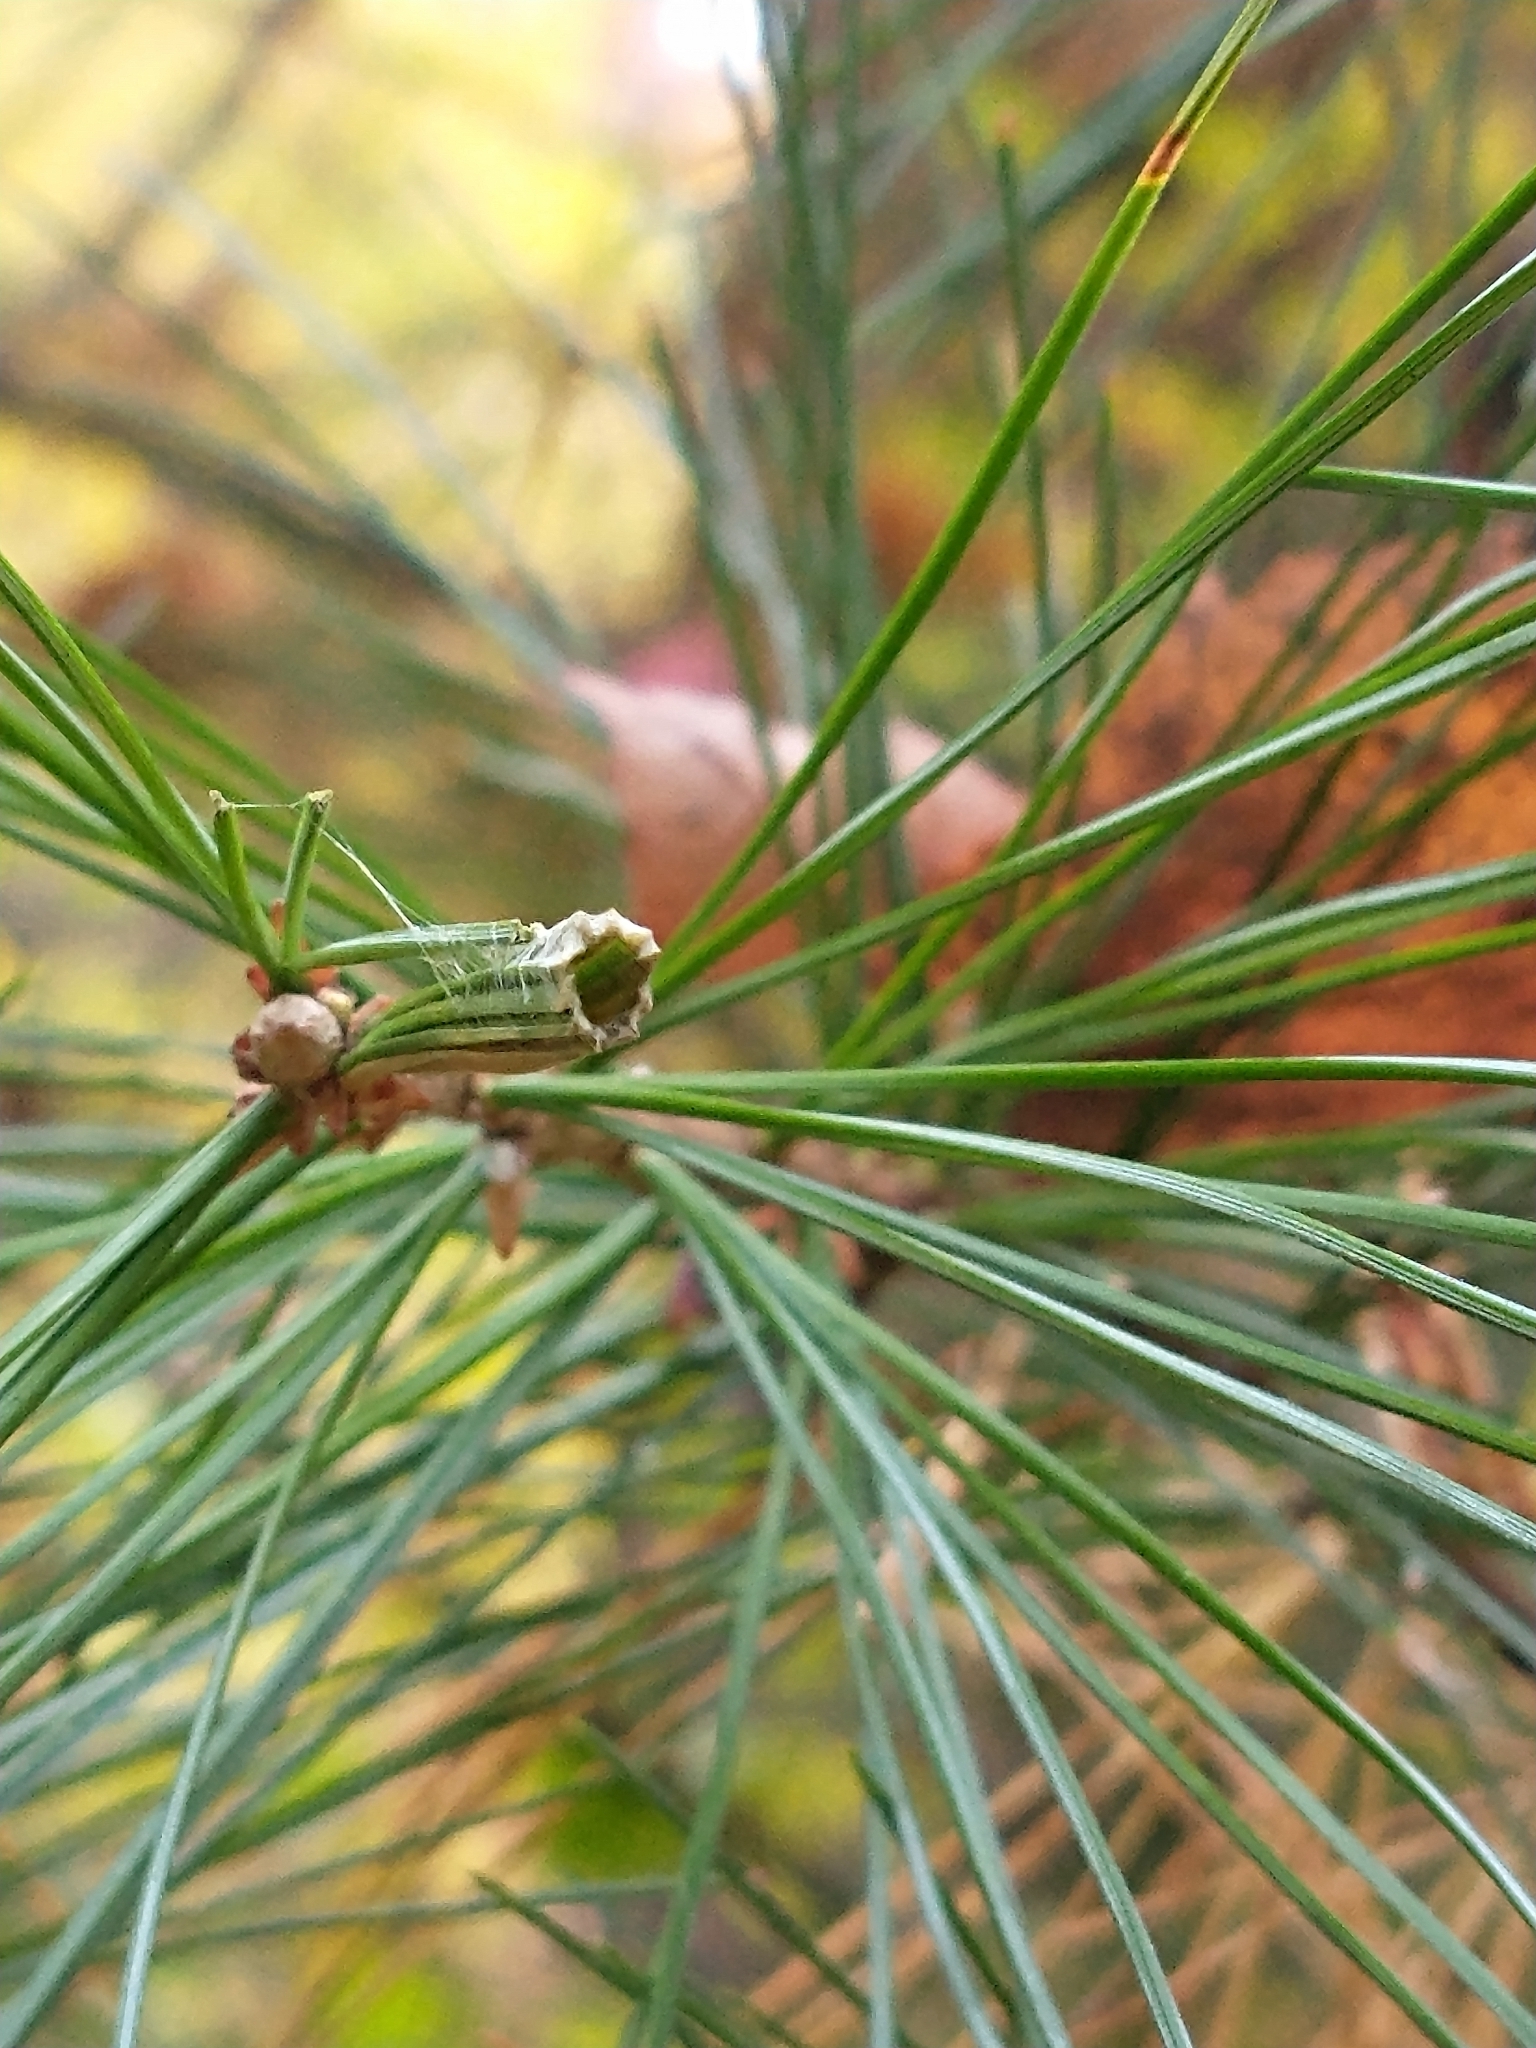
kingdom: Animalia
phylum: Arthropoda
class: Insecta
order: Lepidoptera
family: Tortricidae
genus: Argyrotaenia
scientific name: Argyrotaenia pinatubana
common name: Pine tube moth
